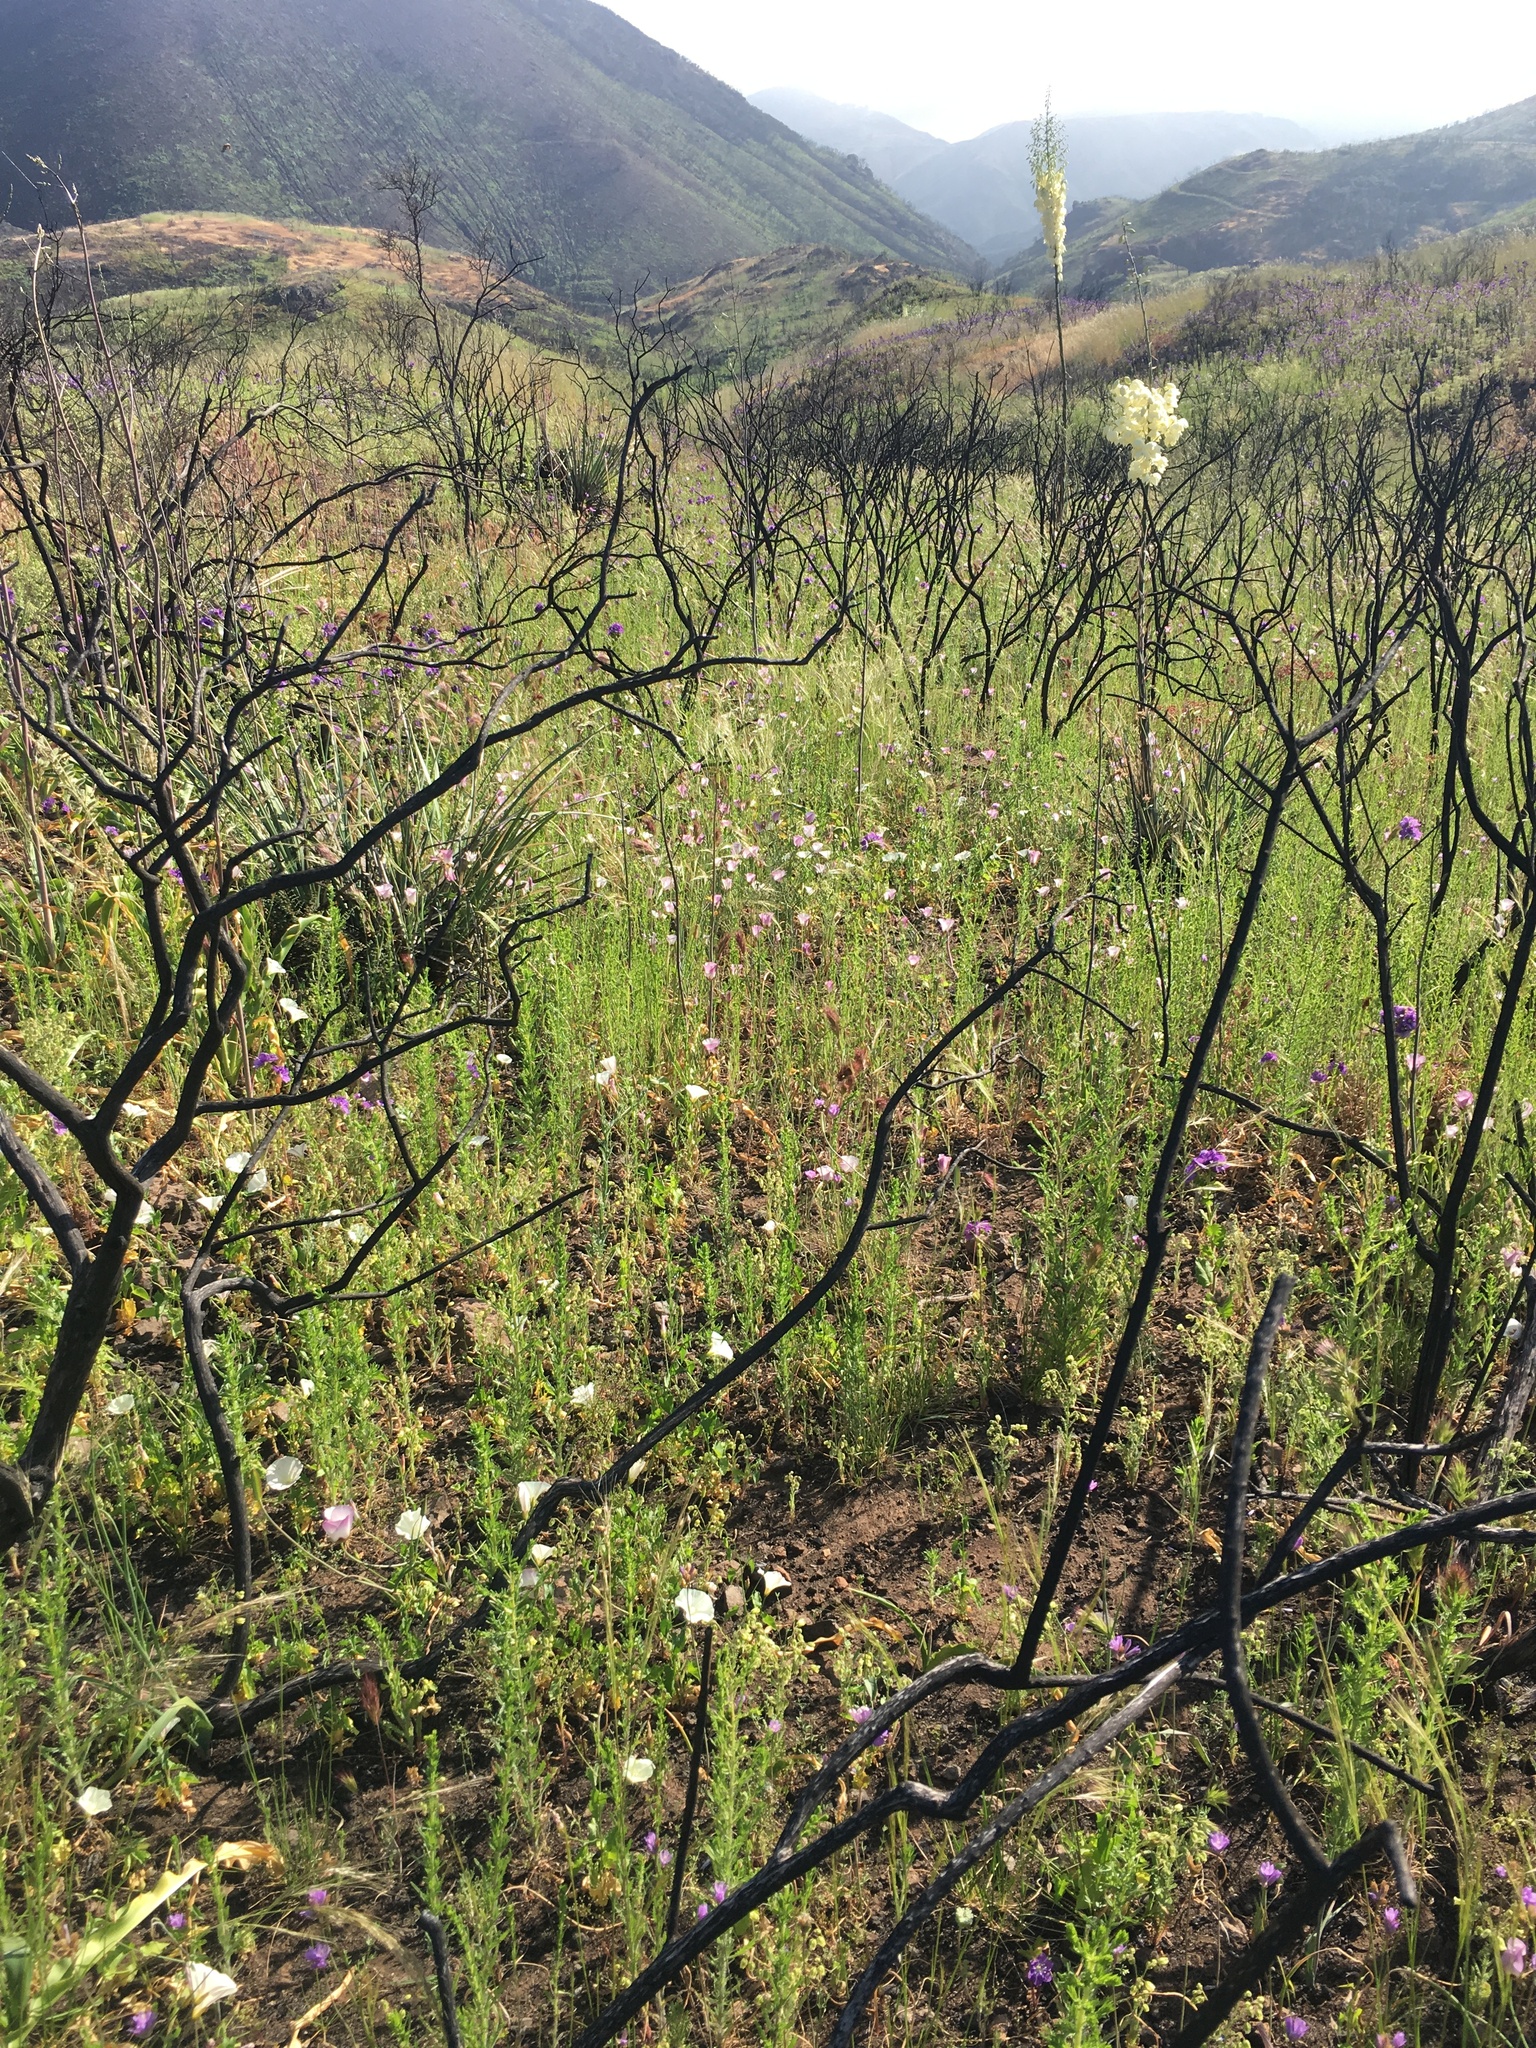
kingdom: Plantae
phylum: Tracheophyta
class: Liliopsida
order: Asparagales
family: Asparagaceae
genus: Hesperoyucca
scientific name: Hesperoyucca whipplei
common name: Our lord's-candle
